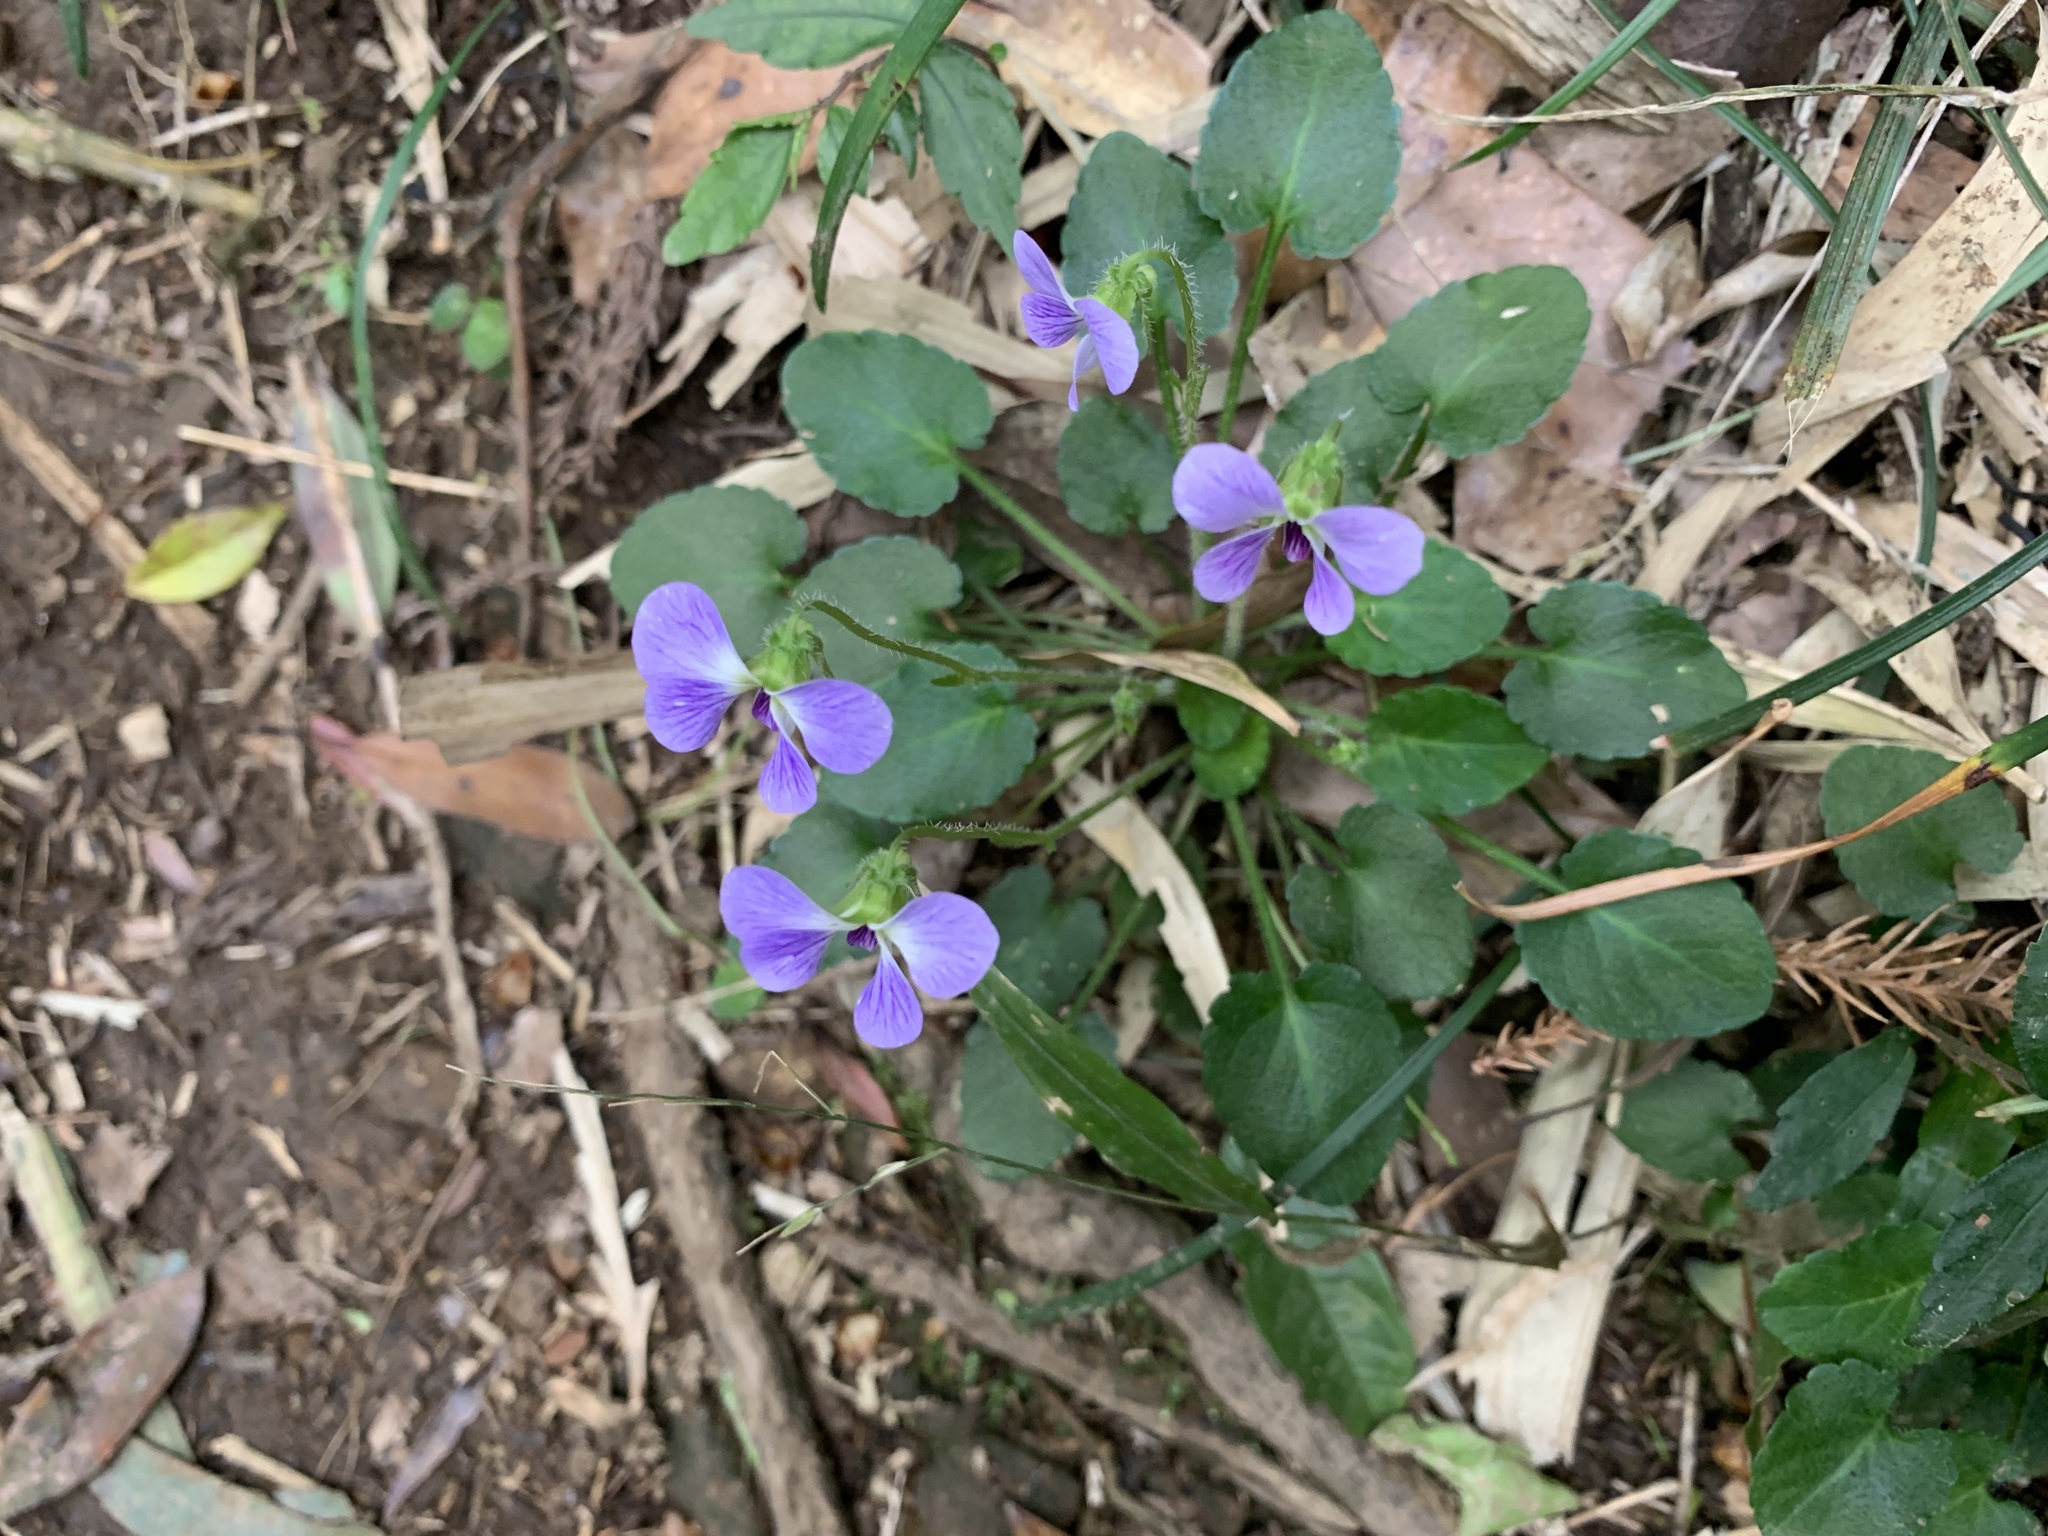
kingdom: Plantae
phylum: Tracheophyta
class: Magnoliopsida
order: Malpighiales
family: Violaceae
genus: Viola
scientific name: Viola nagasawae
